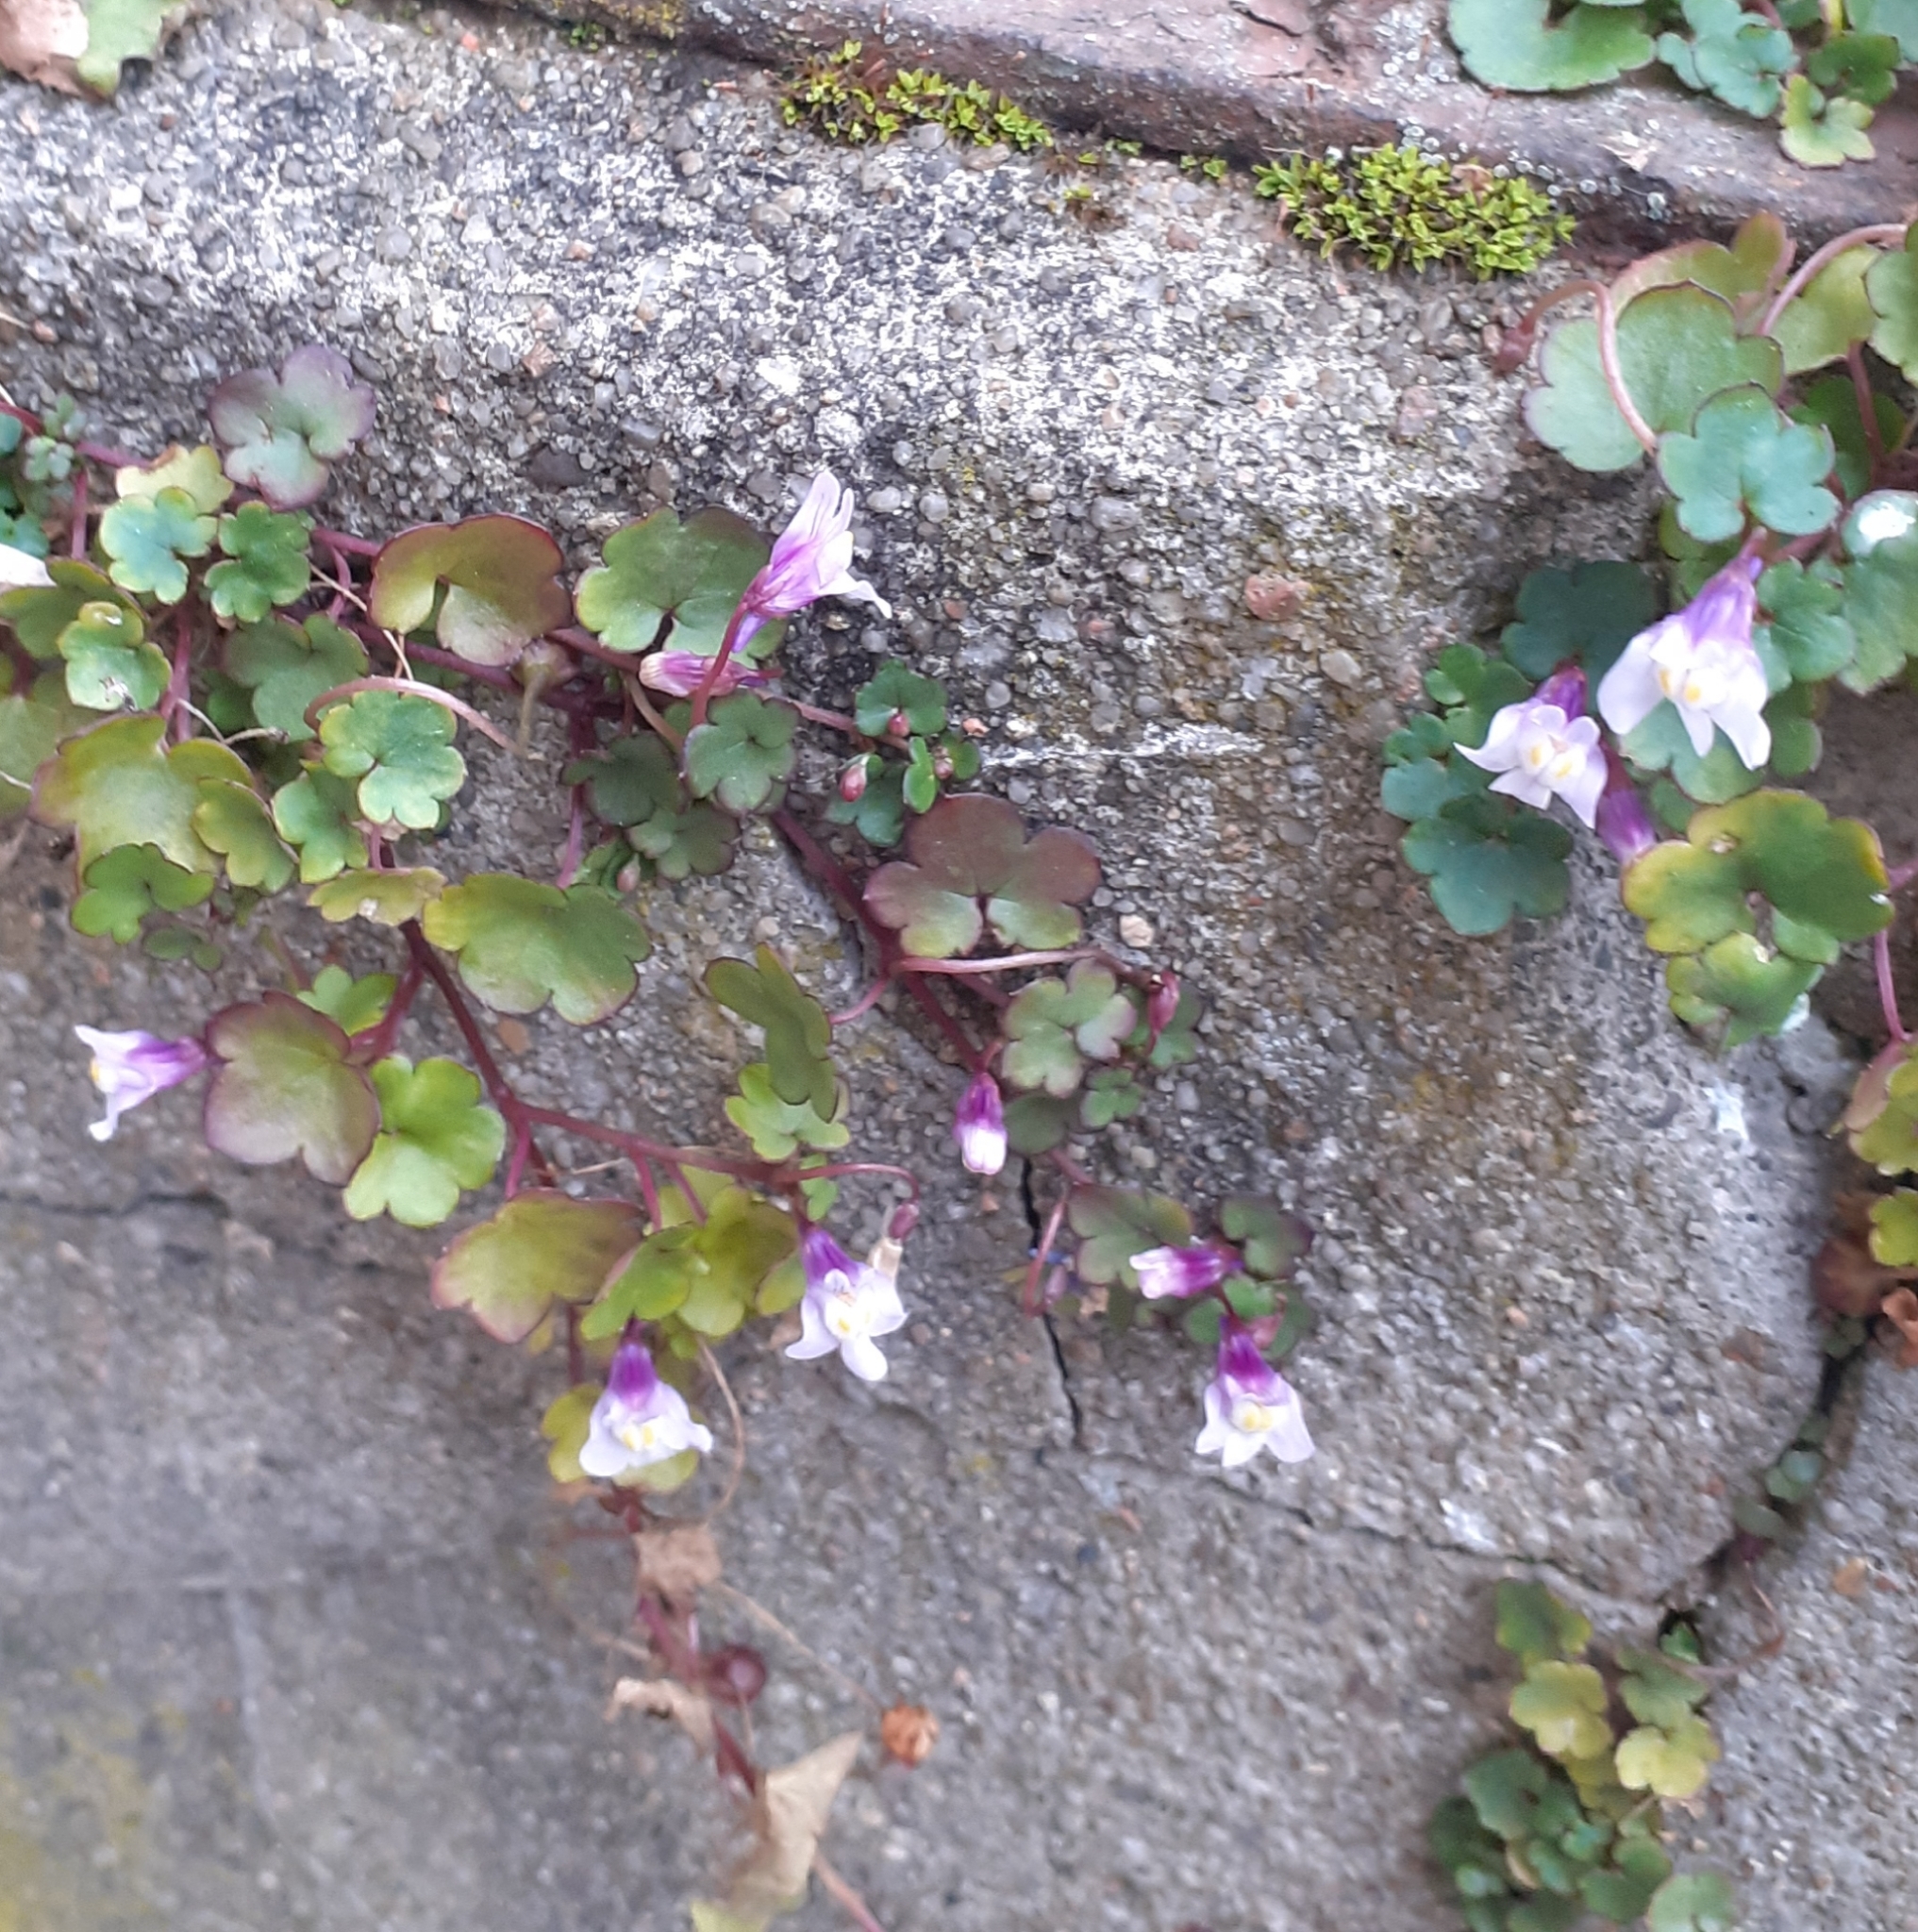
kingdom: Plantae
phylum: Tracheophyta
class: Magnoliopsida
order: Lamiales
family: Plantaginaceae
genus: Cymbalaria
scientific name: Cymbalaria muralis
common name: Ivy-leaved toadflax
